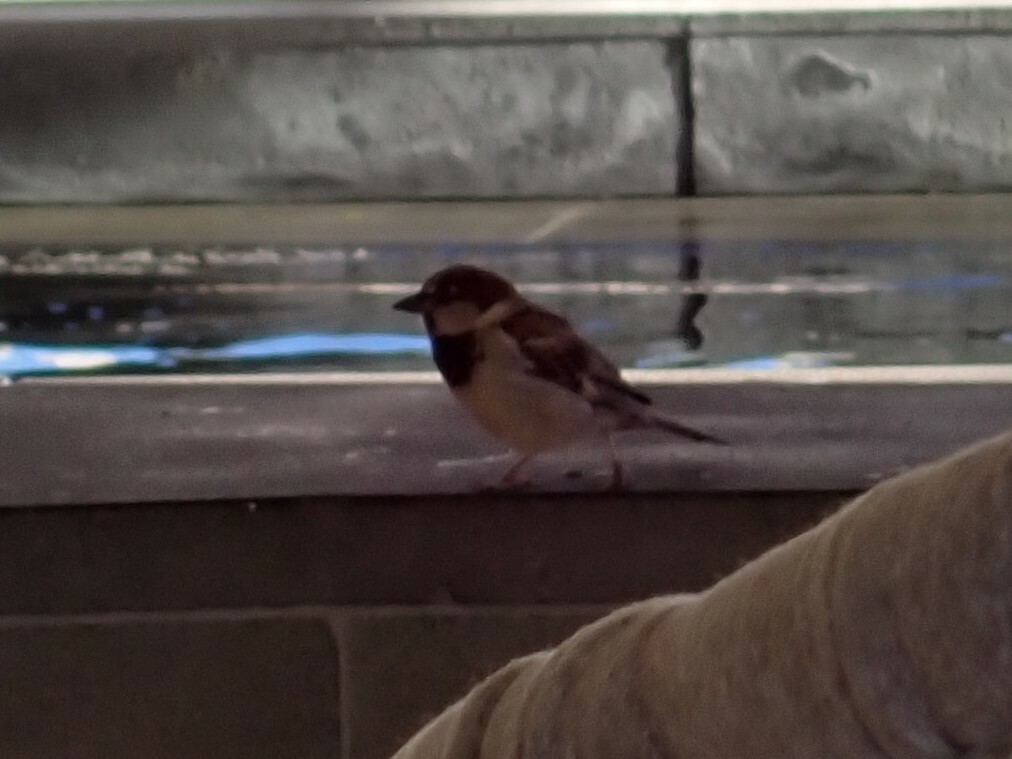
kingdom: Animalia
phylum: Chordata
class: Aves
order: Passeriformes
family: Passeridae
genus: Passer
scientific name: Passer domesticus
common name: House sparrow
